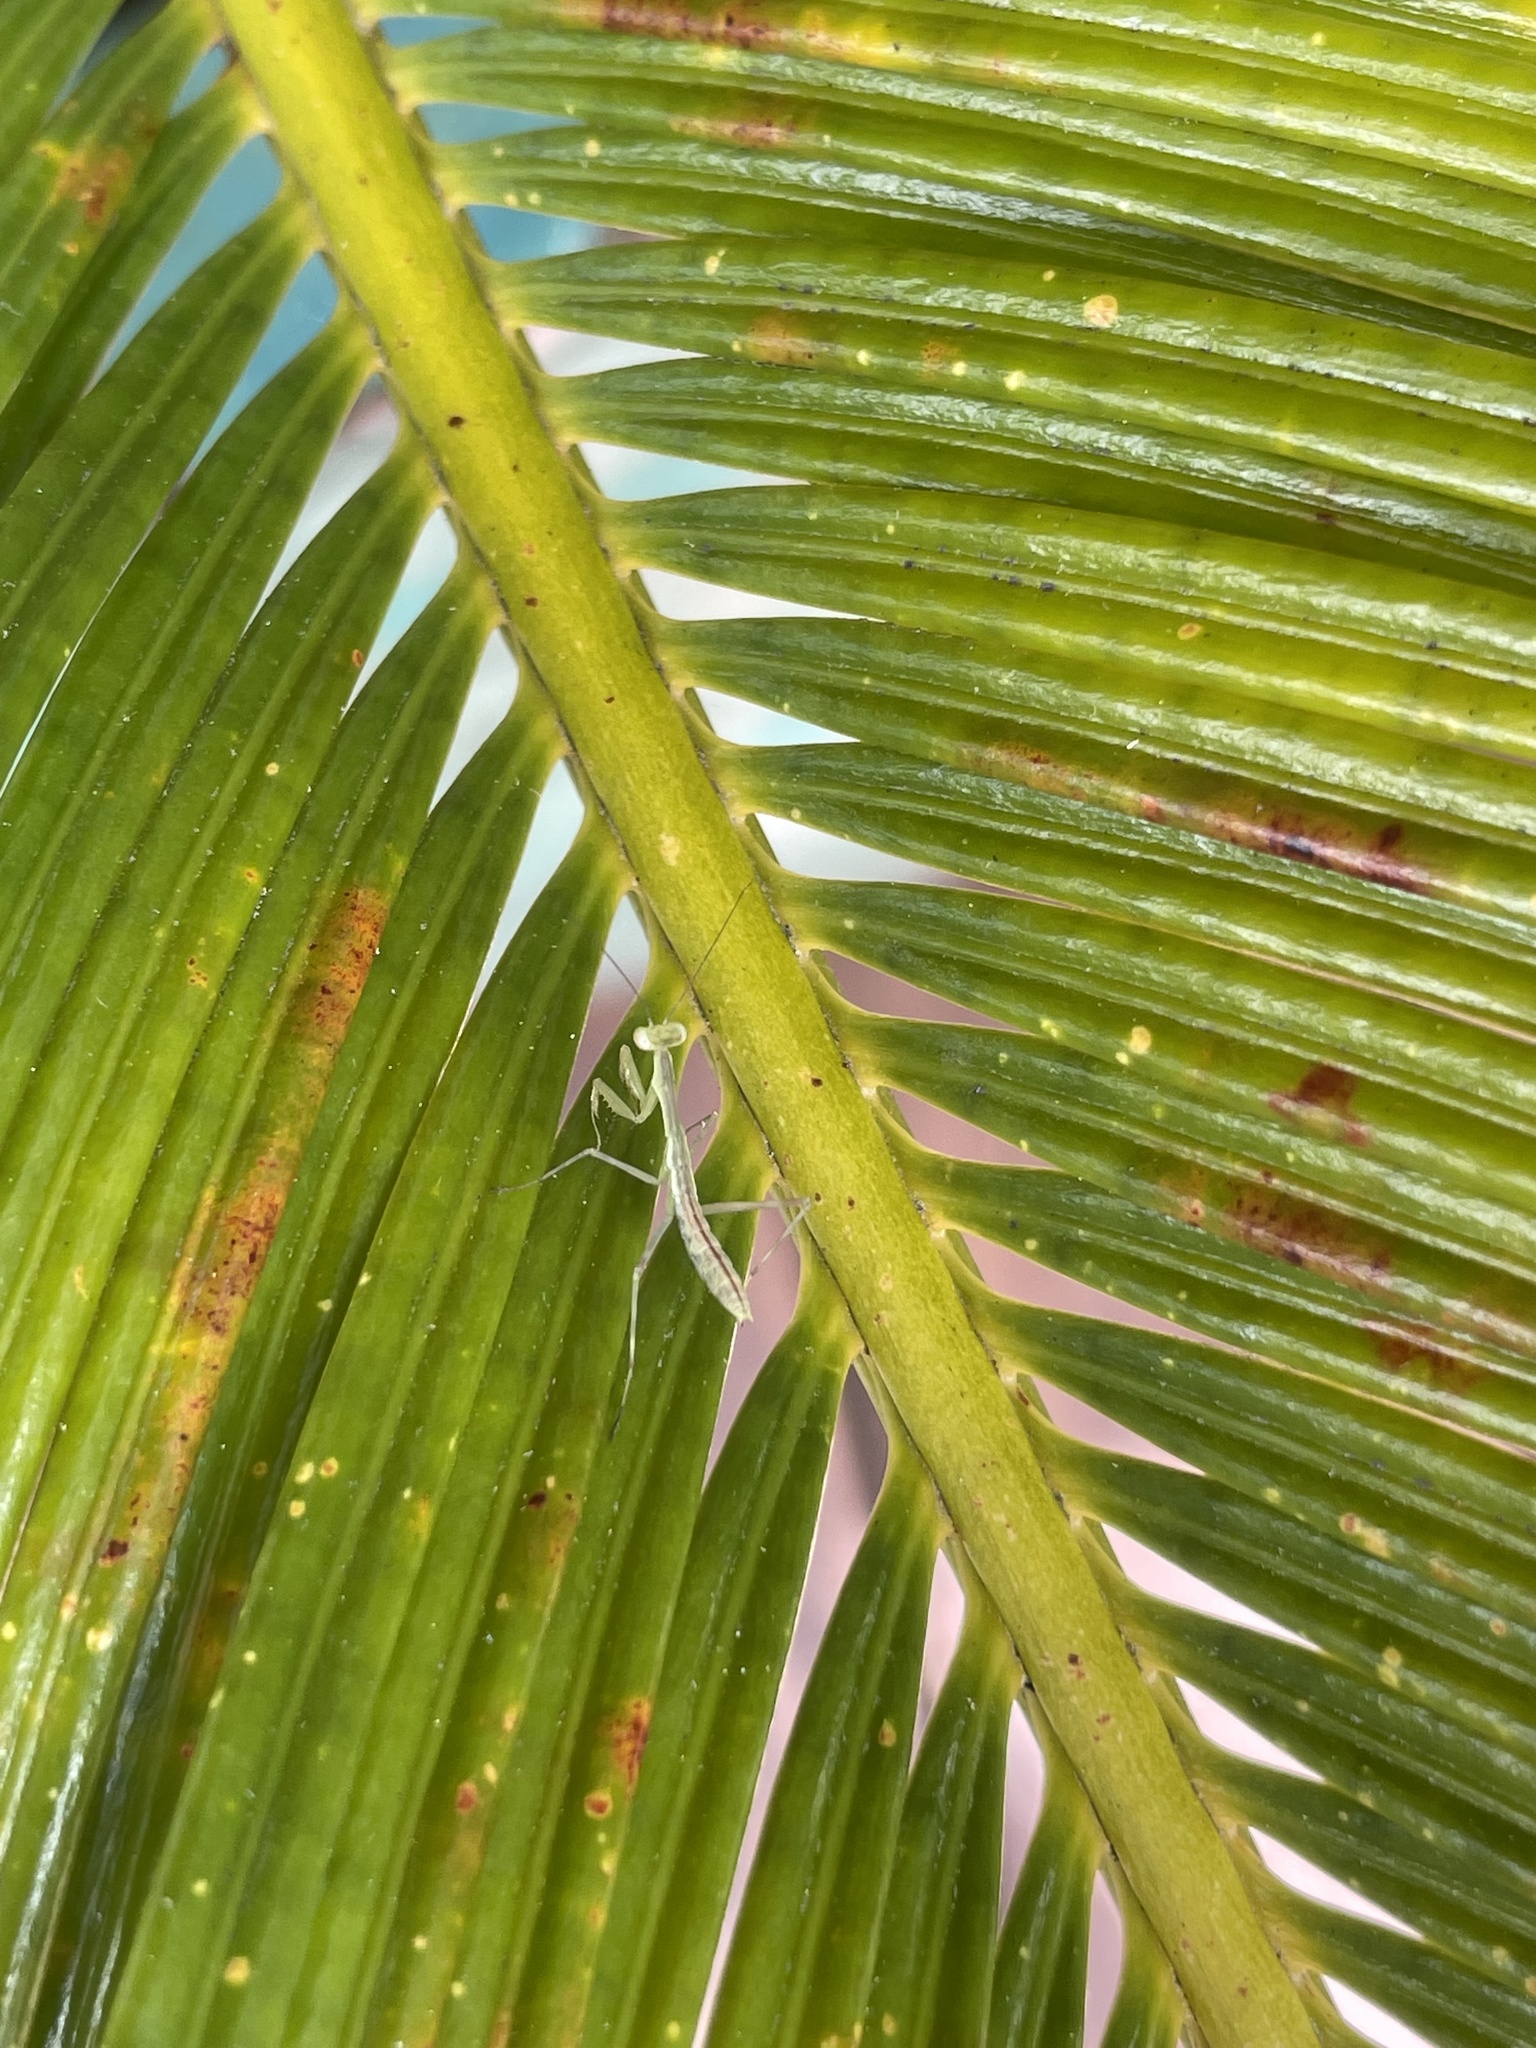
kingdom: Animalia
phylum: Arthropoda
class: Insecta
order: Mantodea
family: Miomantidae
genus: Miomantis
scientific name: Miomantis caffra
